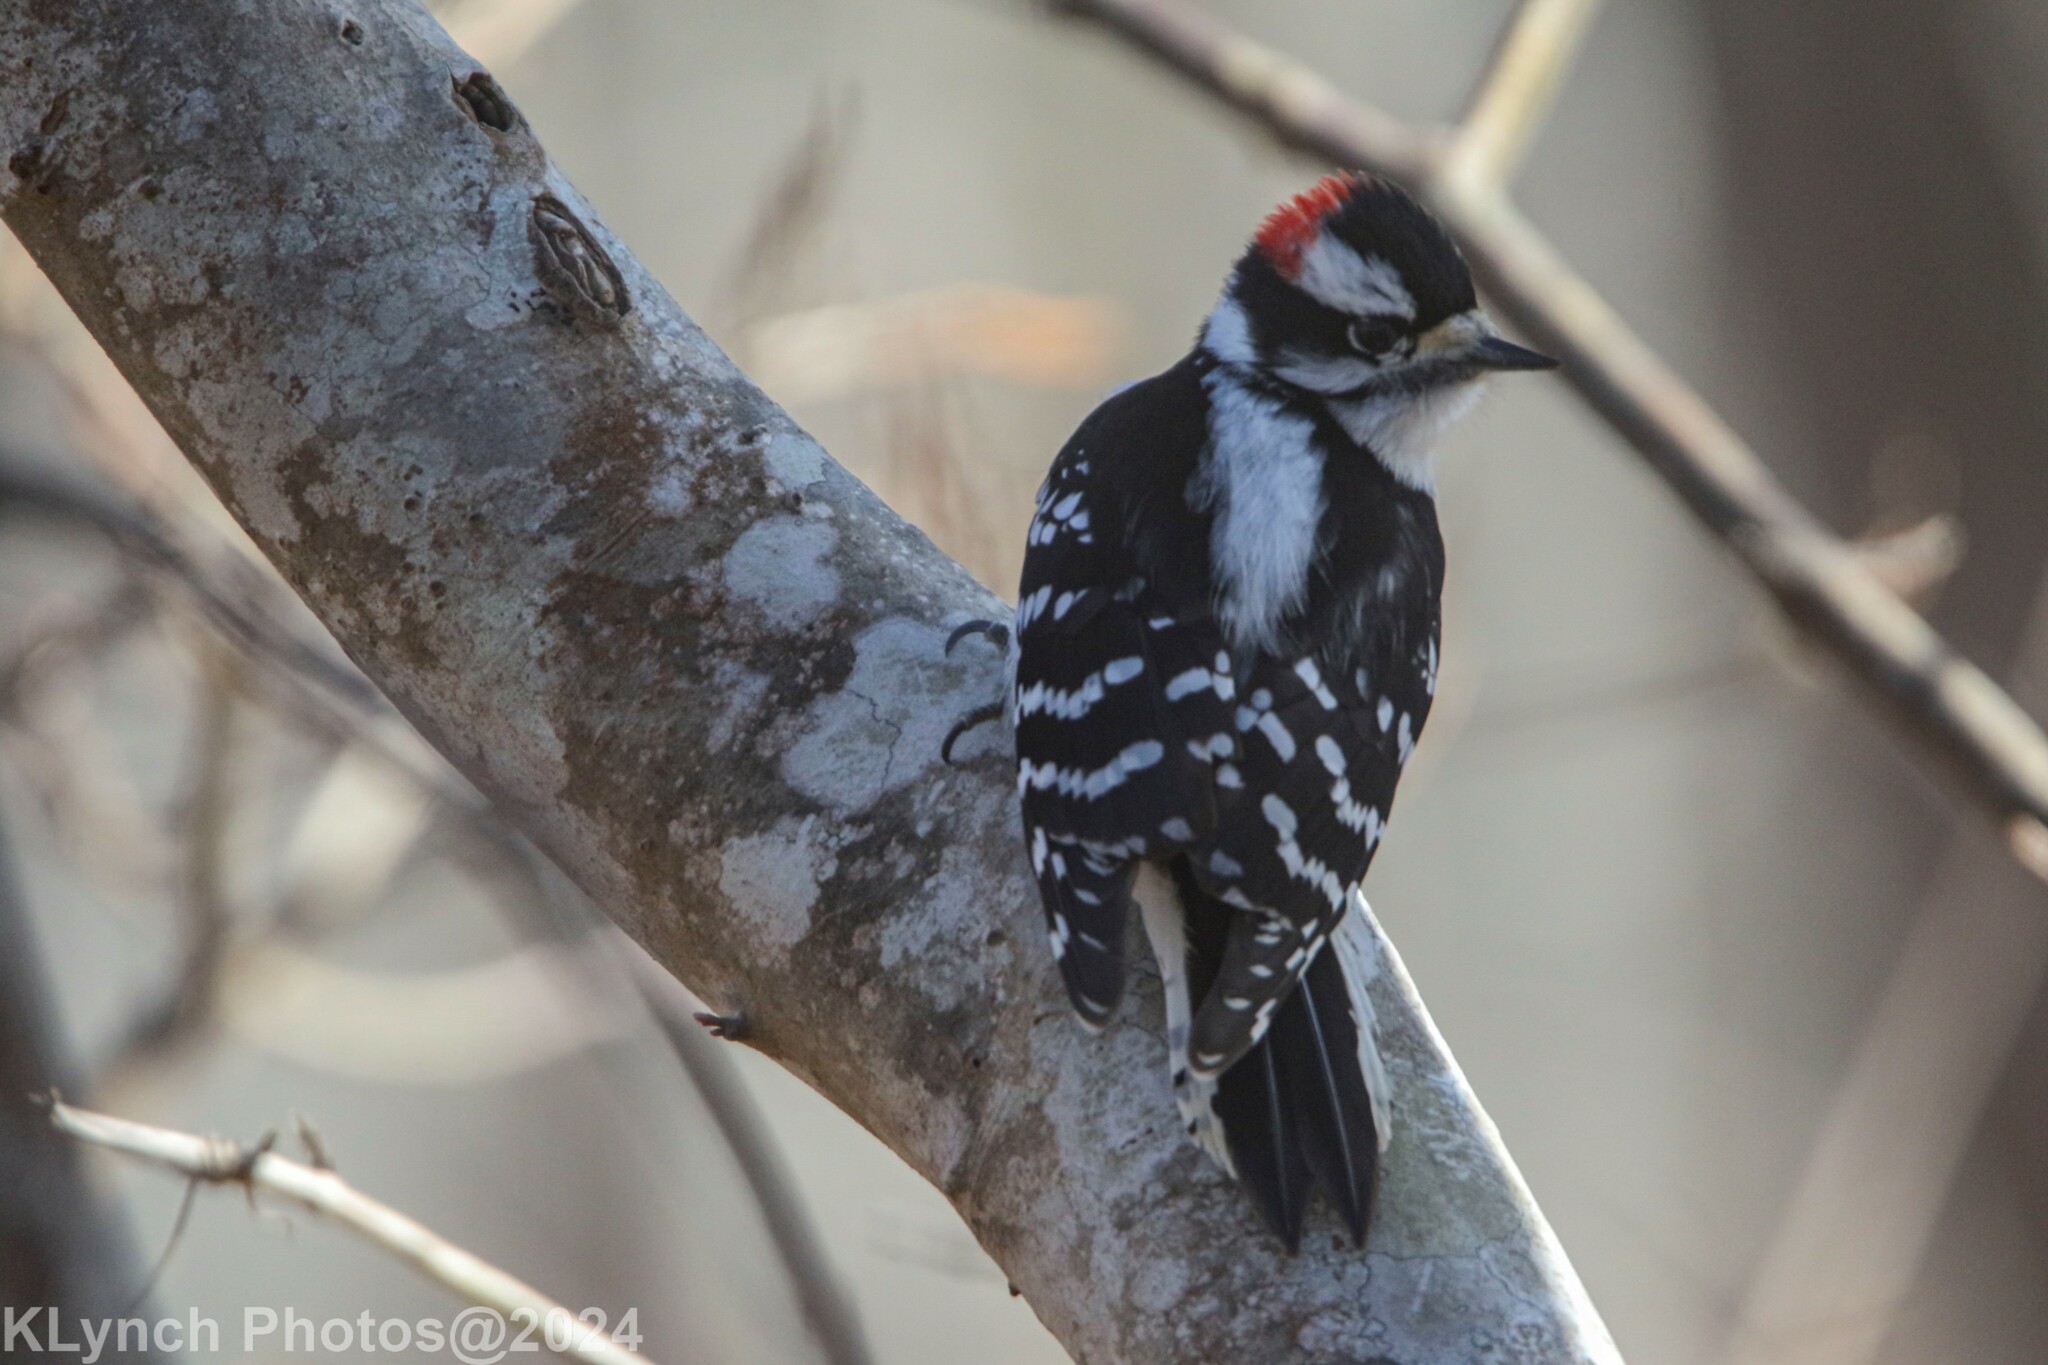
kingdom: Animalia
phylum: Chordata
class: Aves
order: Piciformes
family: Picidae
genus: Dryobates
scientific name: Dryobates pubescens
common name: Downy woodpecker
